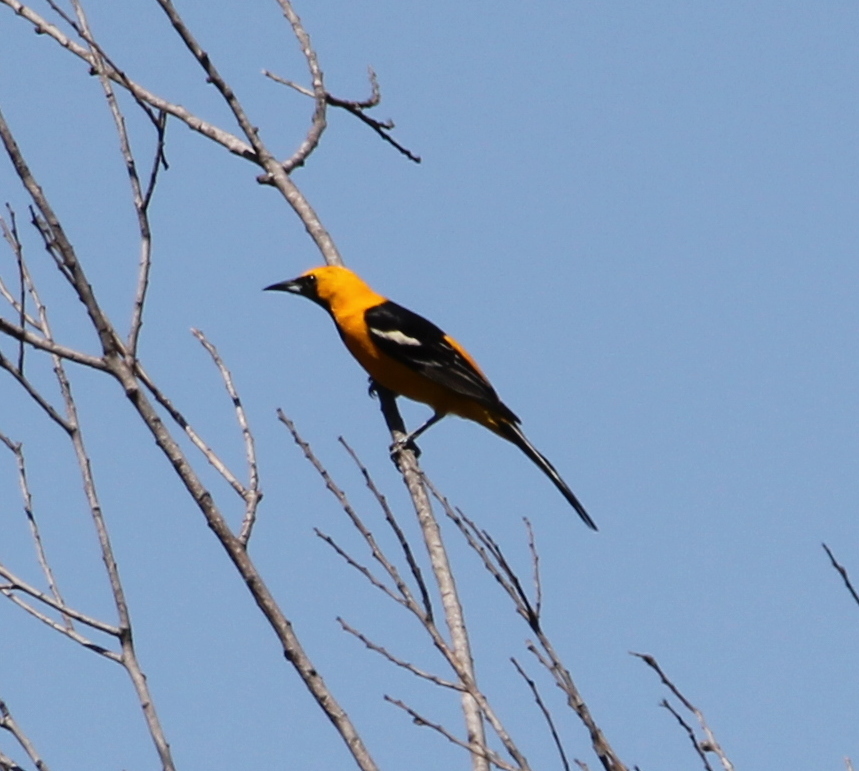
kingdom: Animalia
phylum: Chordata
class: Aves
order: Passeriformes
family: Icteridae
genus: Icterus
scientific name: Icterus cucullatus
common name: Hooded oriole
